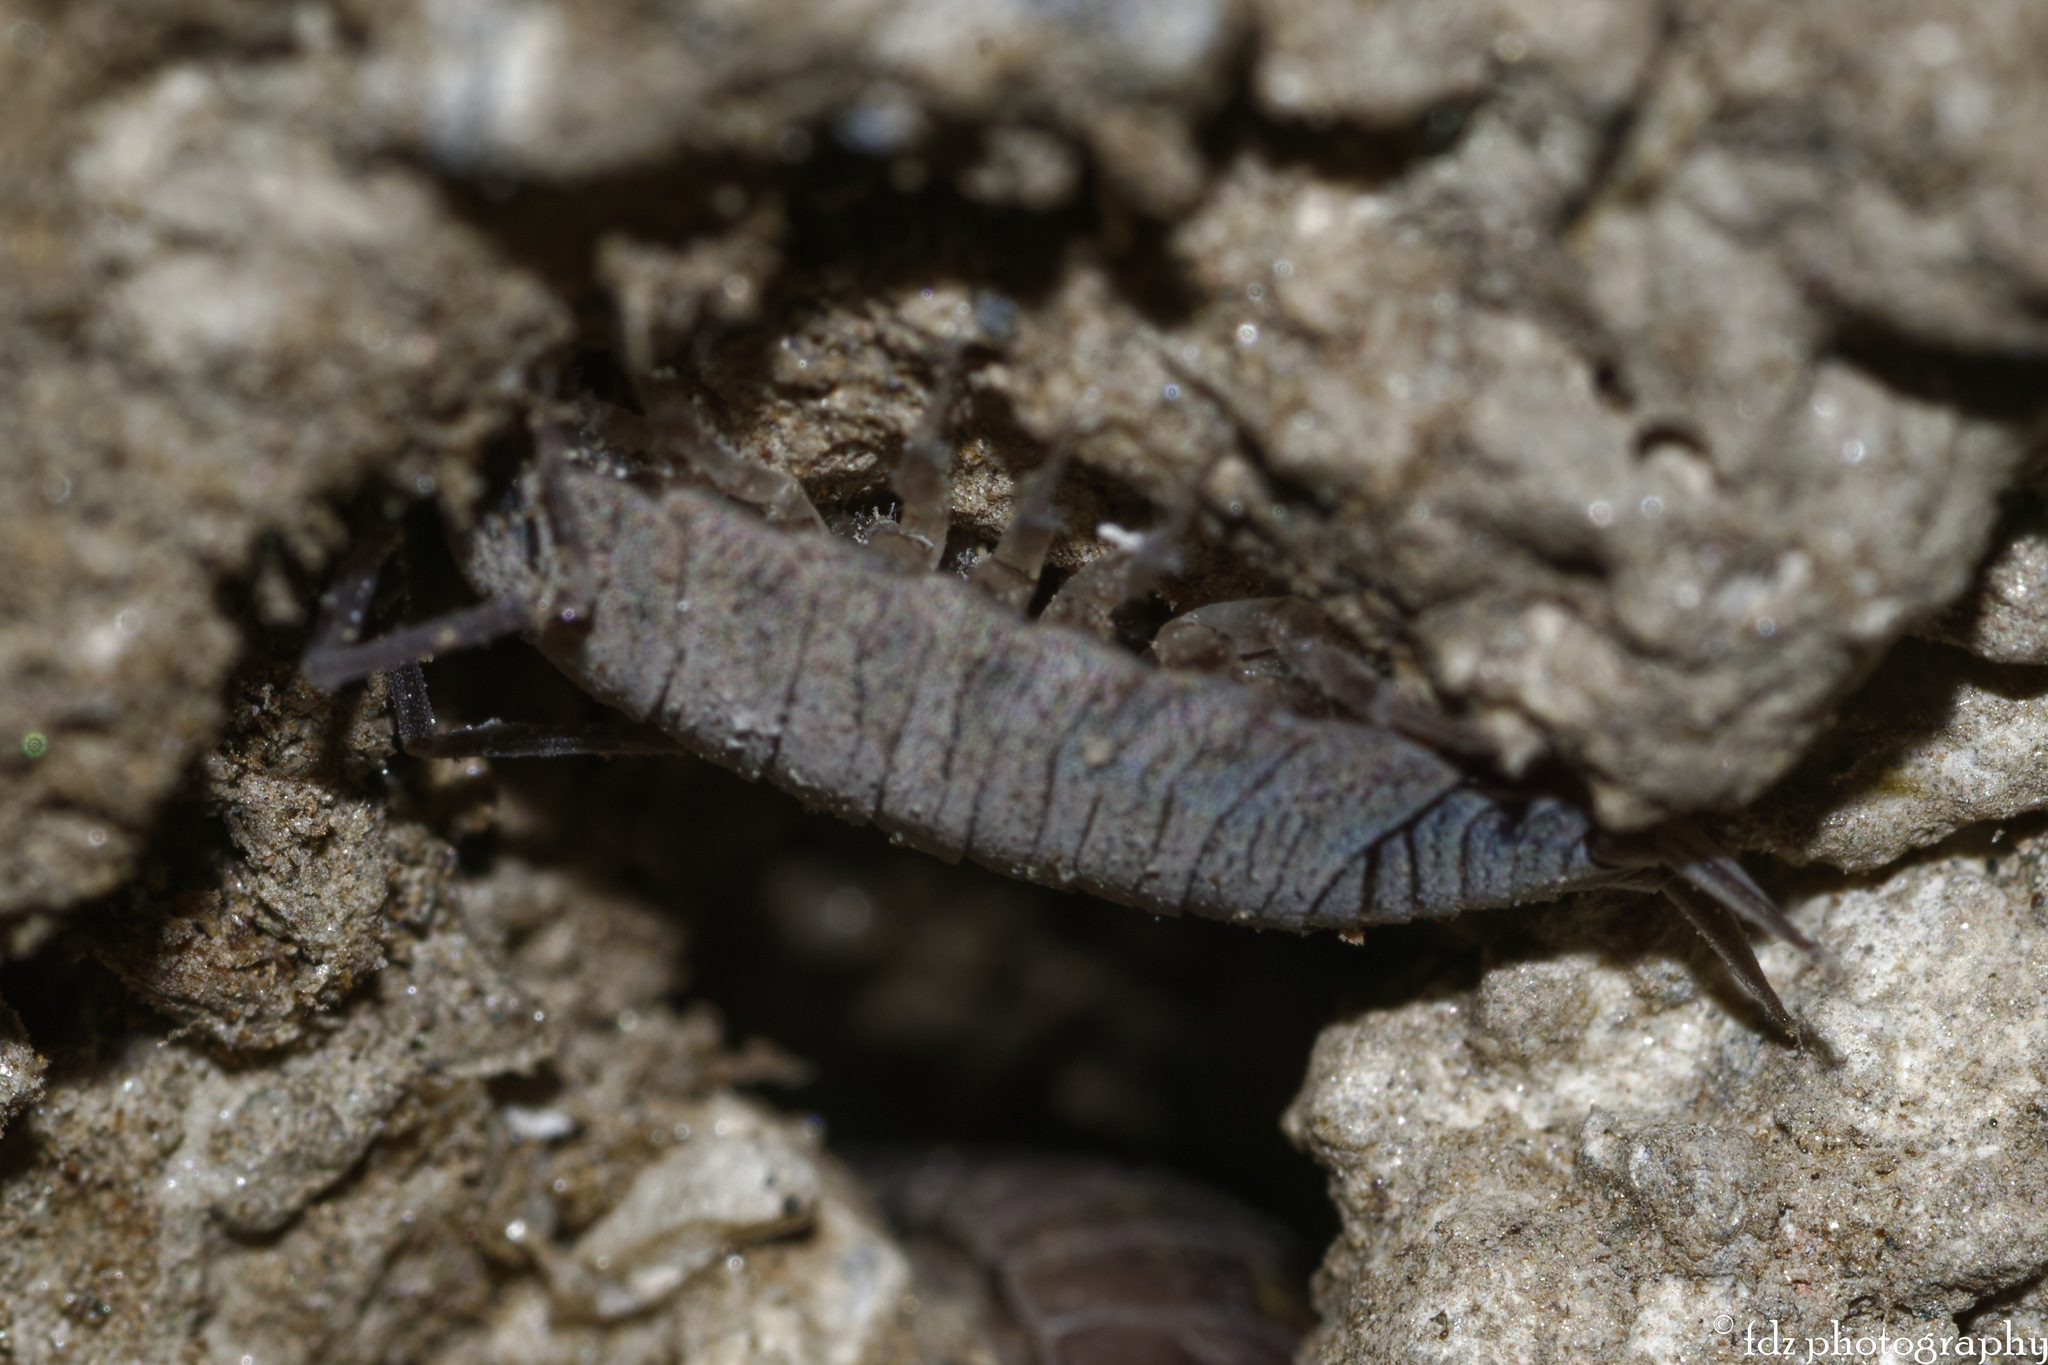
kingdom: Animalia
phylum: Arthropoda
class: Malacostraca
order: Isopoda
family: Porcellionidae
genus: Porcellionides
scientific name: Porcellionides pruinosus
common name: Plum woodlouse
